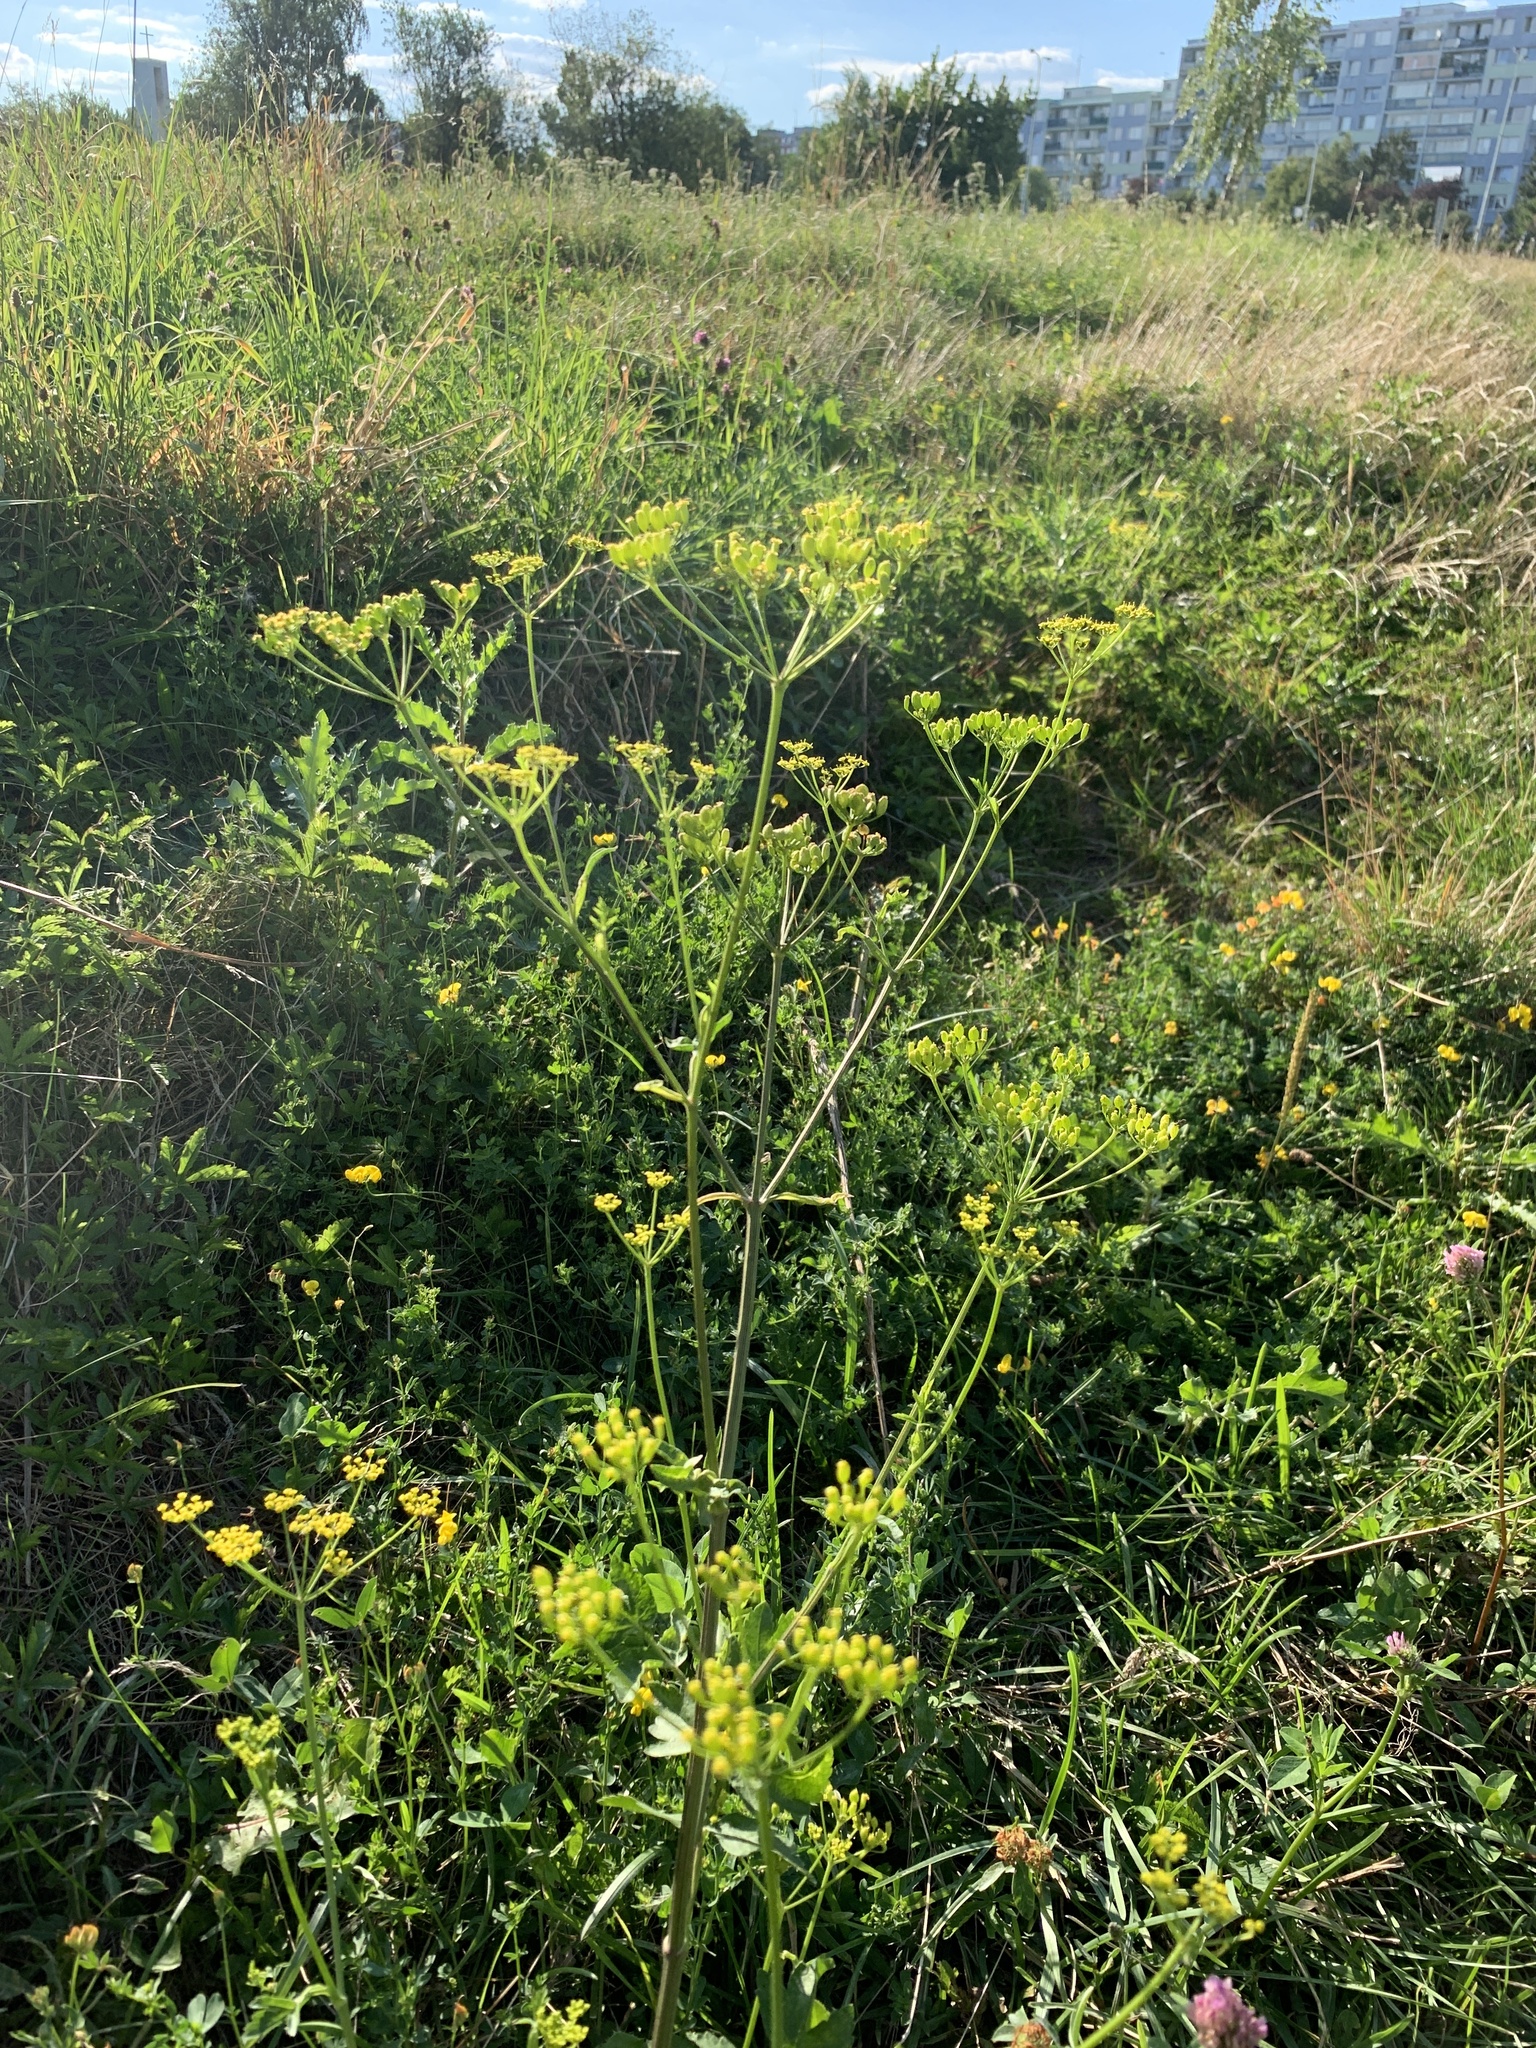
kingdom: Plantae
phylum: Tracheophyta
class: Magnoliopsida
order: Apiales
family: Apiaceae
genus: Pastinaca
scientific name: Pastinaca sativa
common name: Wild parsnip
